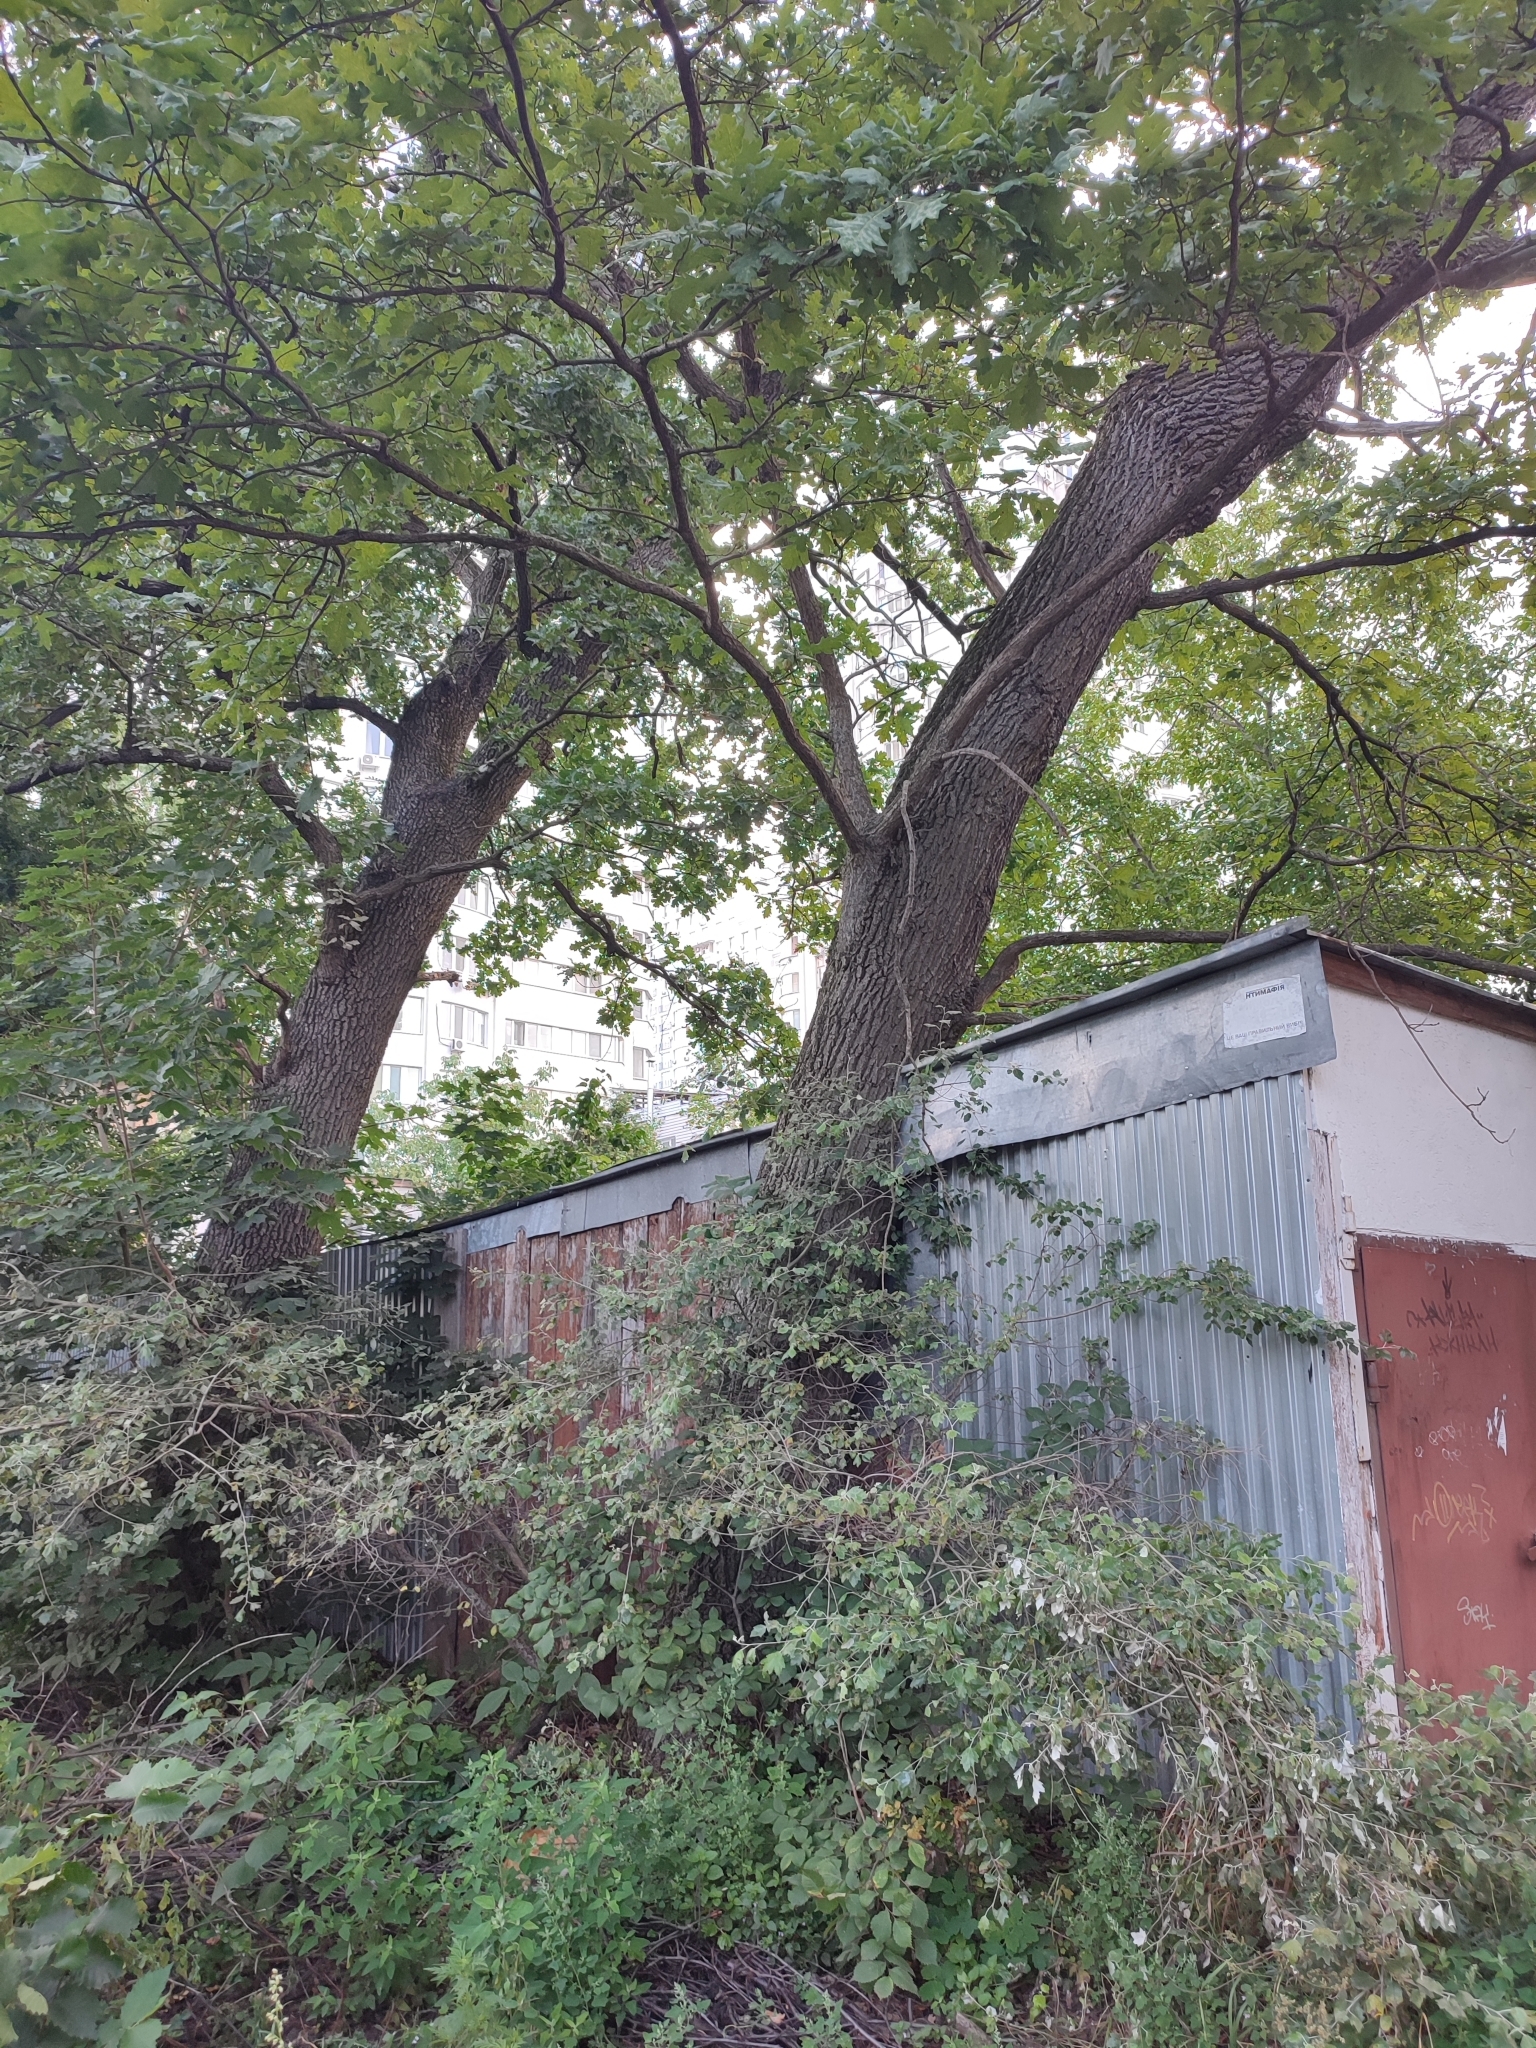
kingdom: Plantae
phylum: Tracheophyta
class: Magnoliopsida
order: Fagales
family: Fagaceae
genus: Quercus
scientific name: Quercus robur
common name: Pedunculate oak
